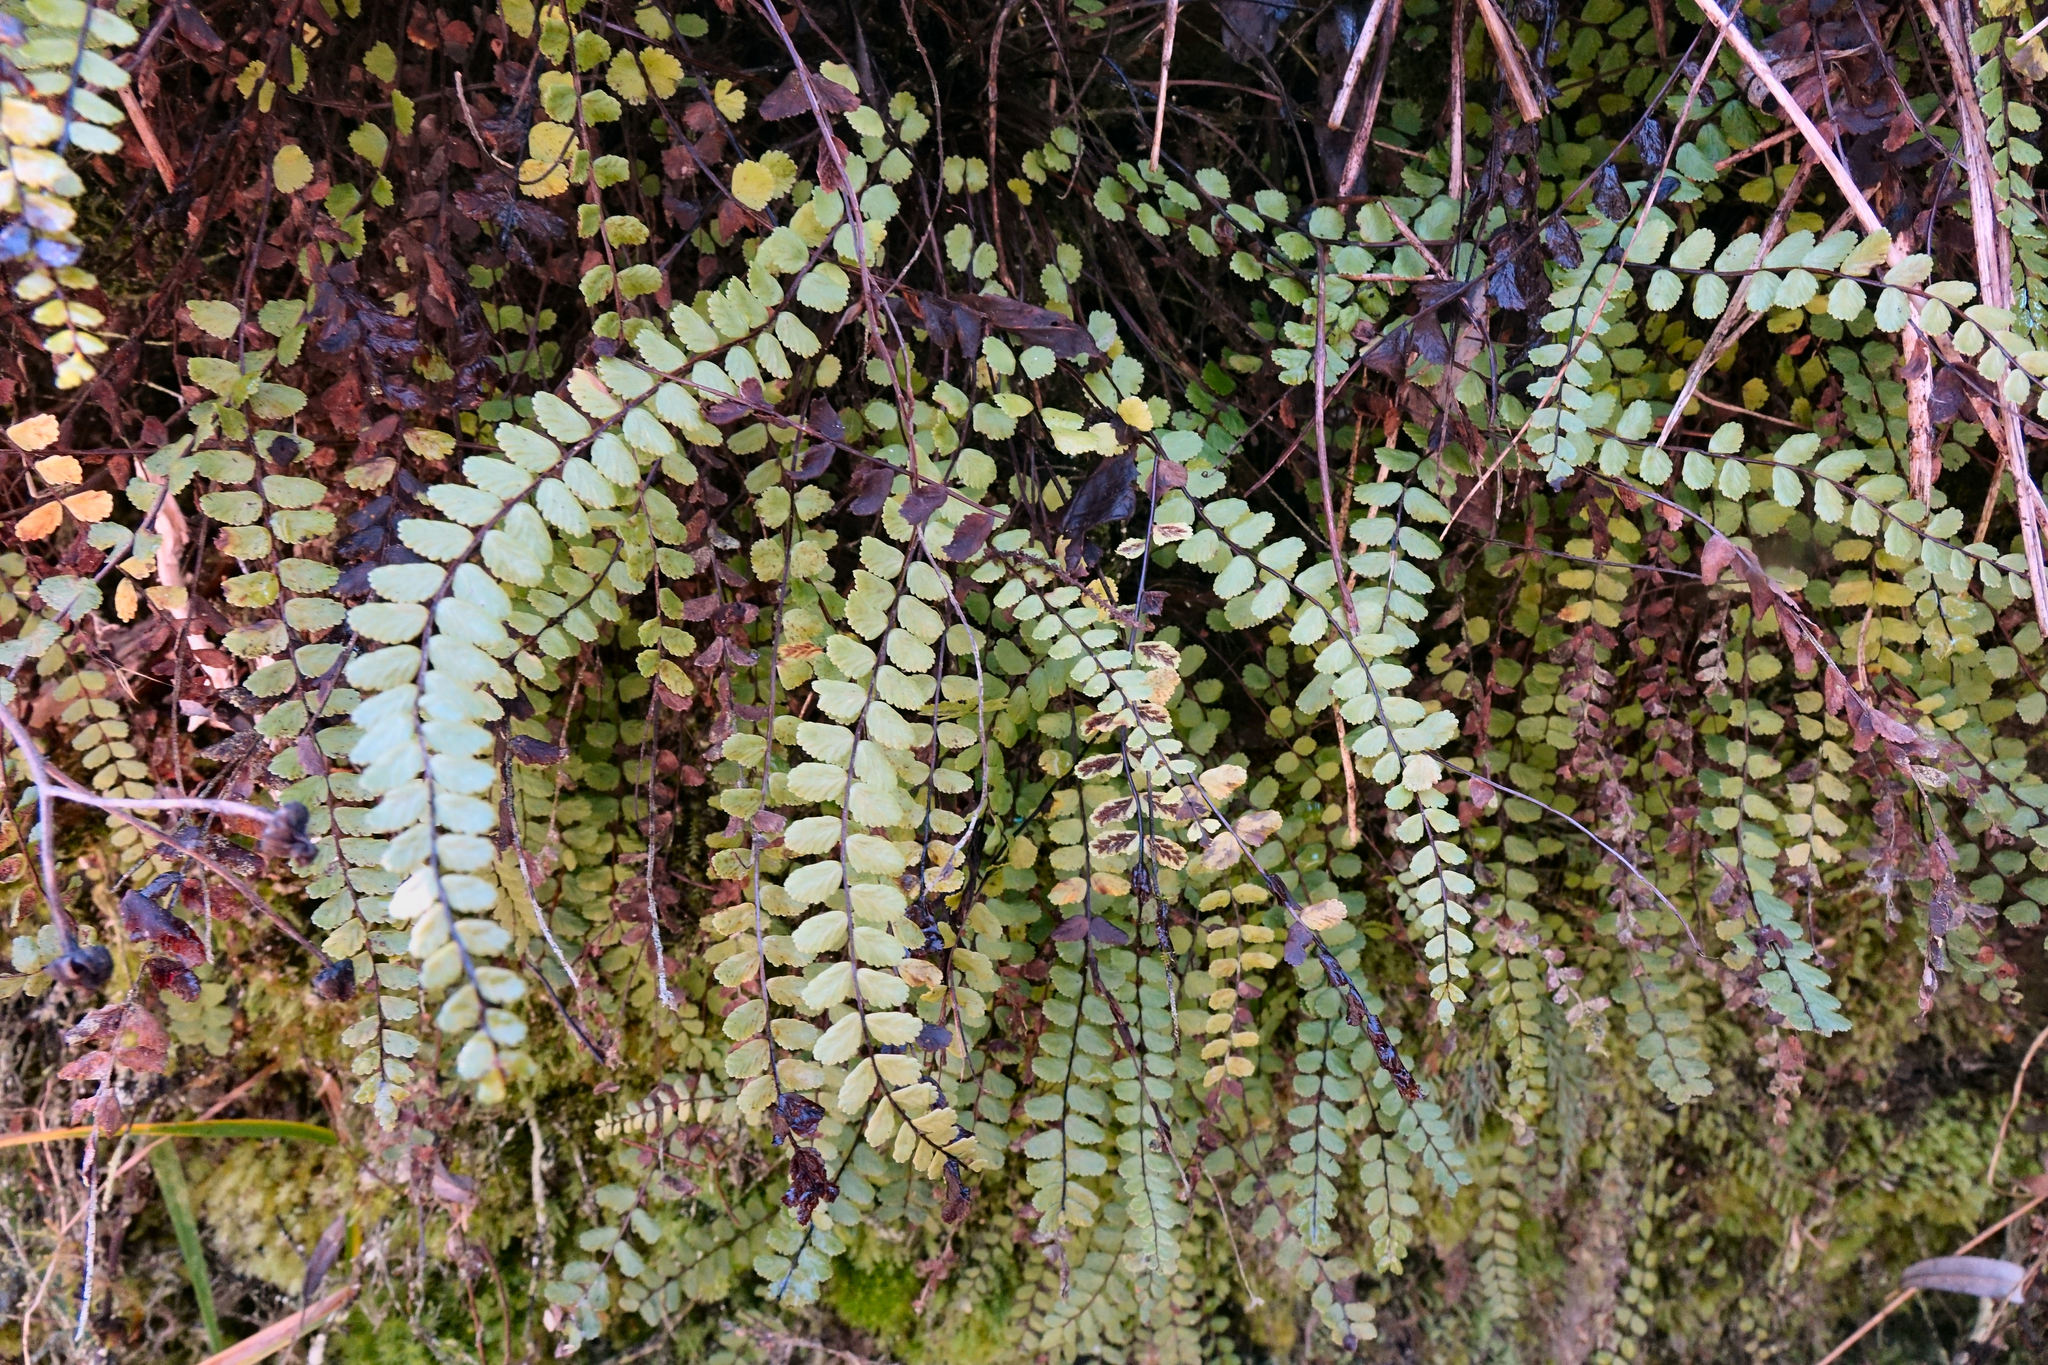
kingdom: Plantae
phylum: Tracheophyta
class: Polypodiopsida
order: Polypodiales
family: Aspleniaceae
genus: Asplenium
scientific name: Asplenium trichomanes
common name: Maidenhair spleenwort
